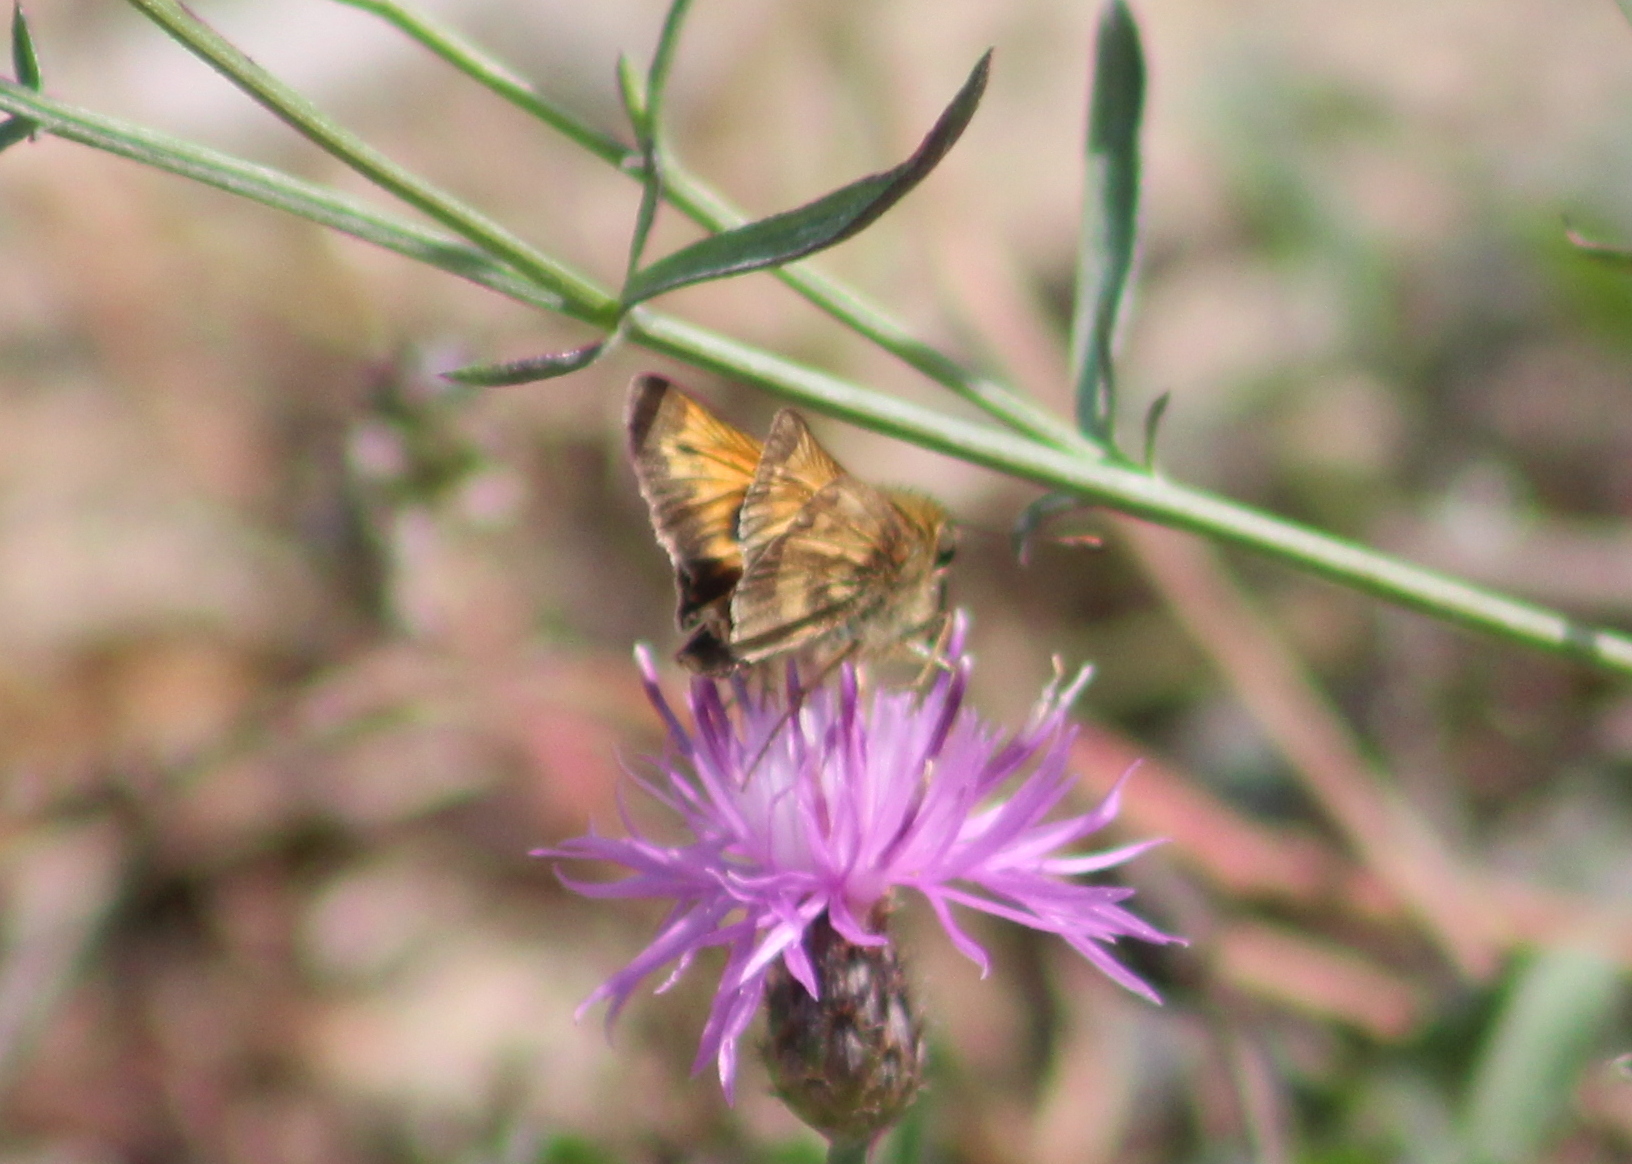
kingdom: Animalia
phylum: Arthropoda
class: Insecta
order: Lepidoptera
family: Hesperiidae
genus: Atalopedes
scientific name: Atalopedes
